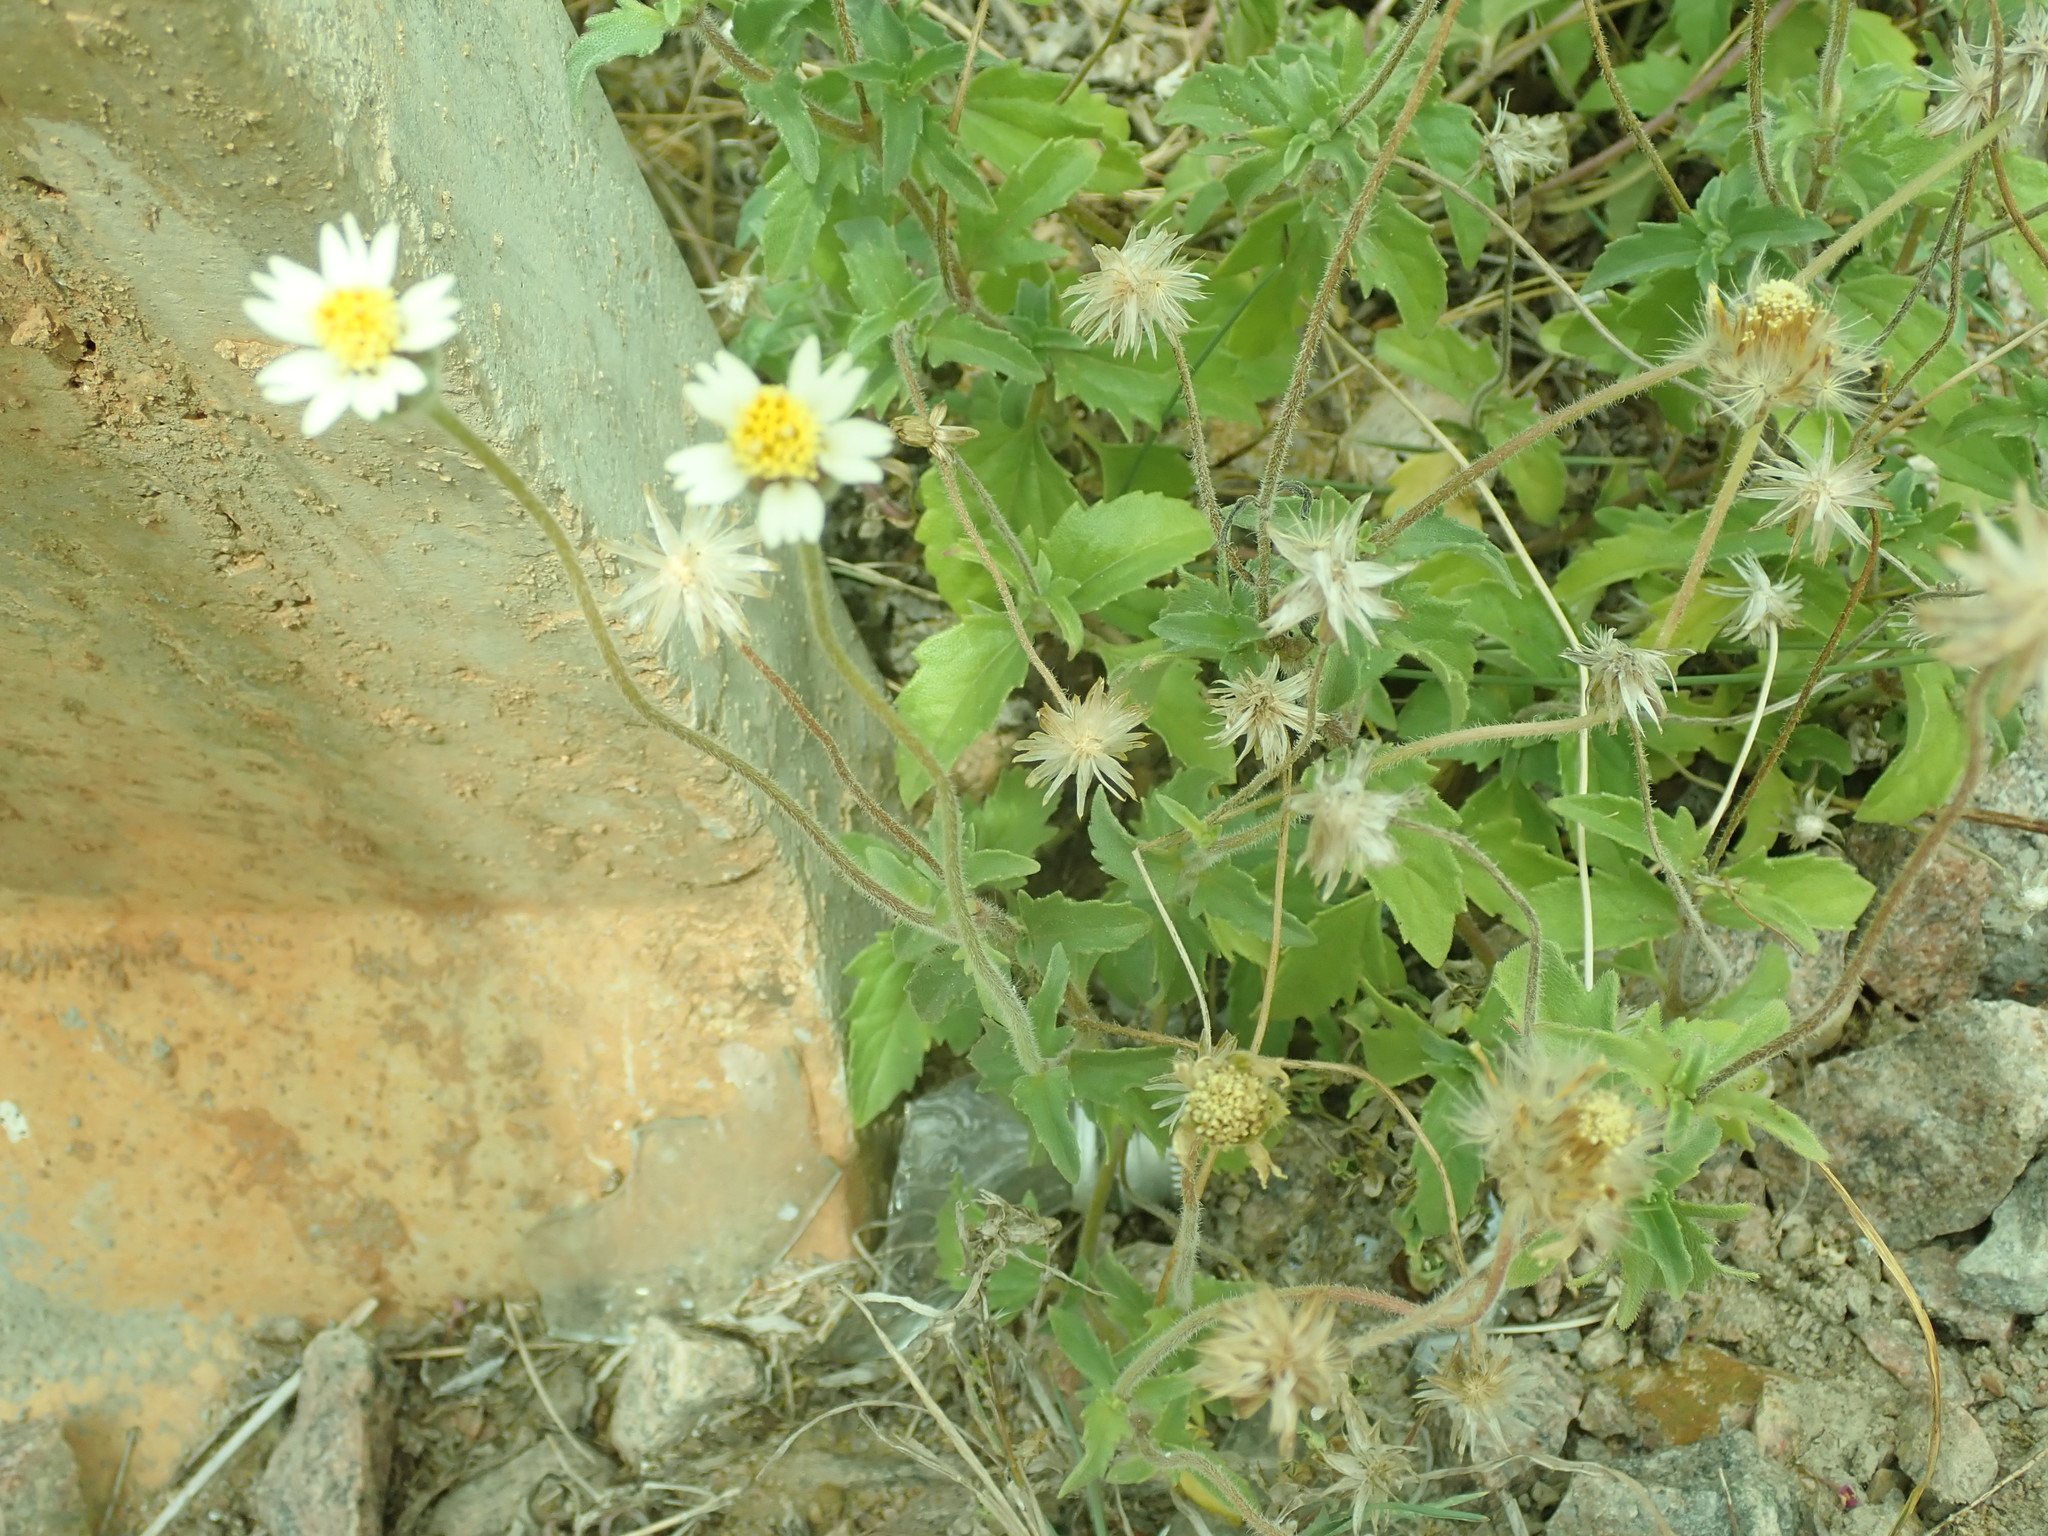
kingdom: Plantae
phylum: Tracheophyta
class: Magnoliopsida
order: Asterales
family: Asteraceae
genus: Tridax
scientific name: Tridax procumbens
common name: Coatbuttons
